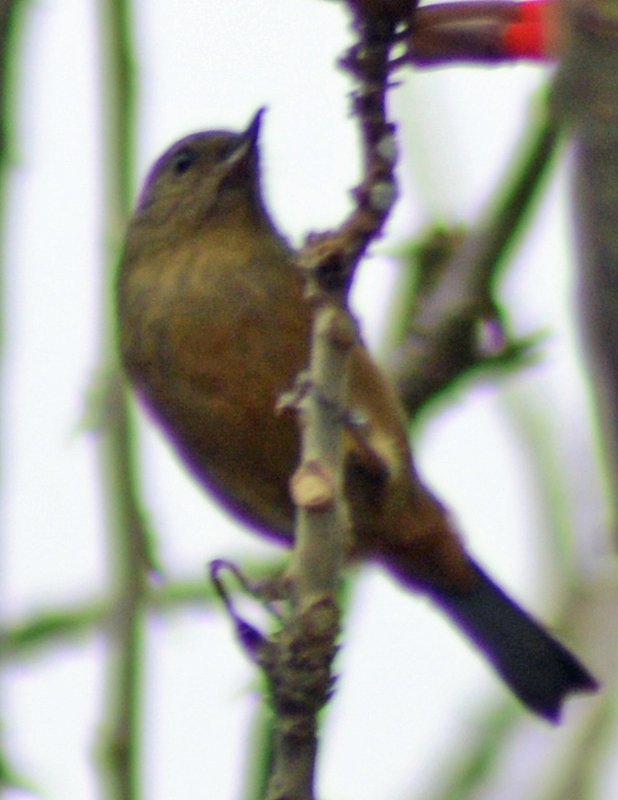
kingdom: Animalia
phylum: Chordata
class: Aves
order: Passeriformes
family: Thraupidae
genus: Diglossa
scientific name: Diglossa baritula
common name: Cinnamon-bellied flowerpiercer
